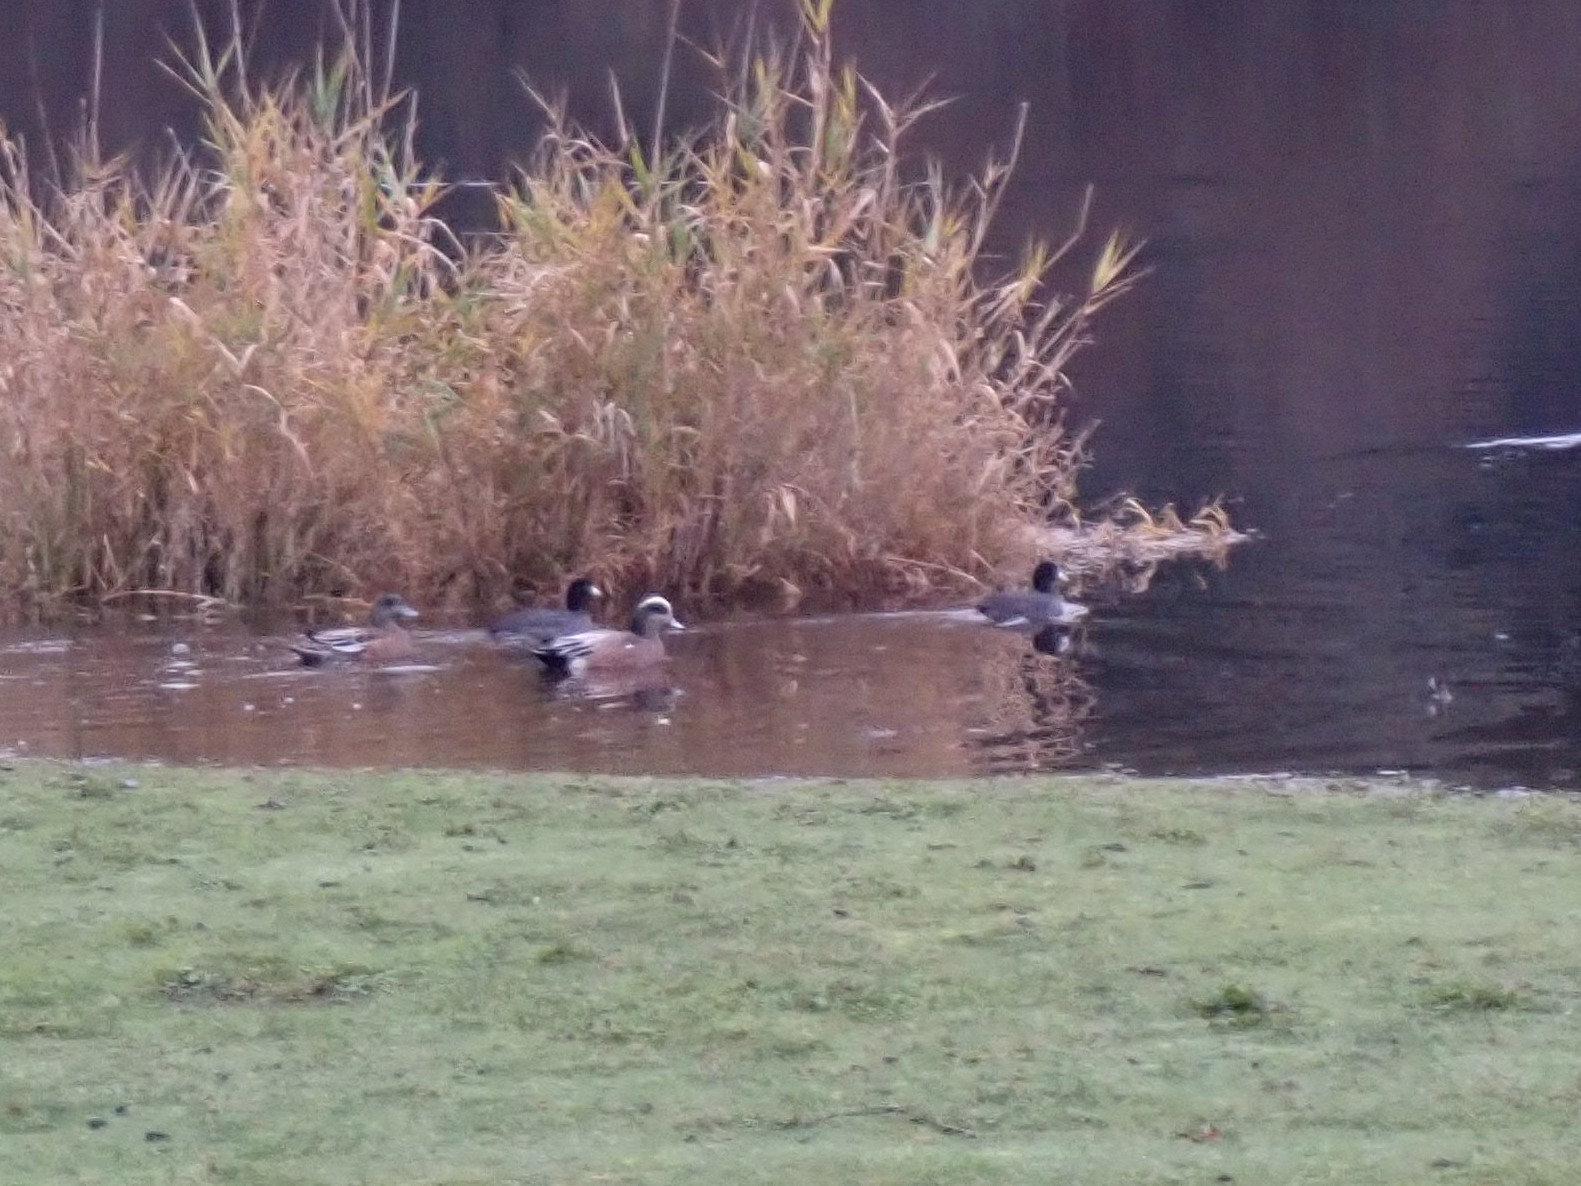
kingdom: Animalia
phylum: Chordata
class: Aves
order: Gruiformes
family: Rallidae
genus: Fulica
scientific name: Fulica americana
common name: American coot
